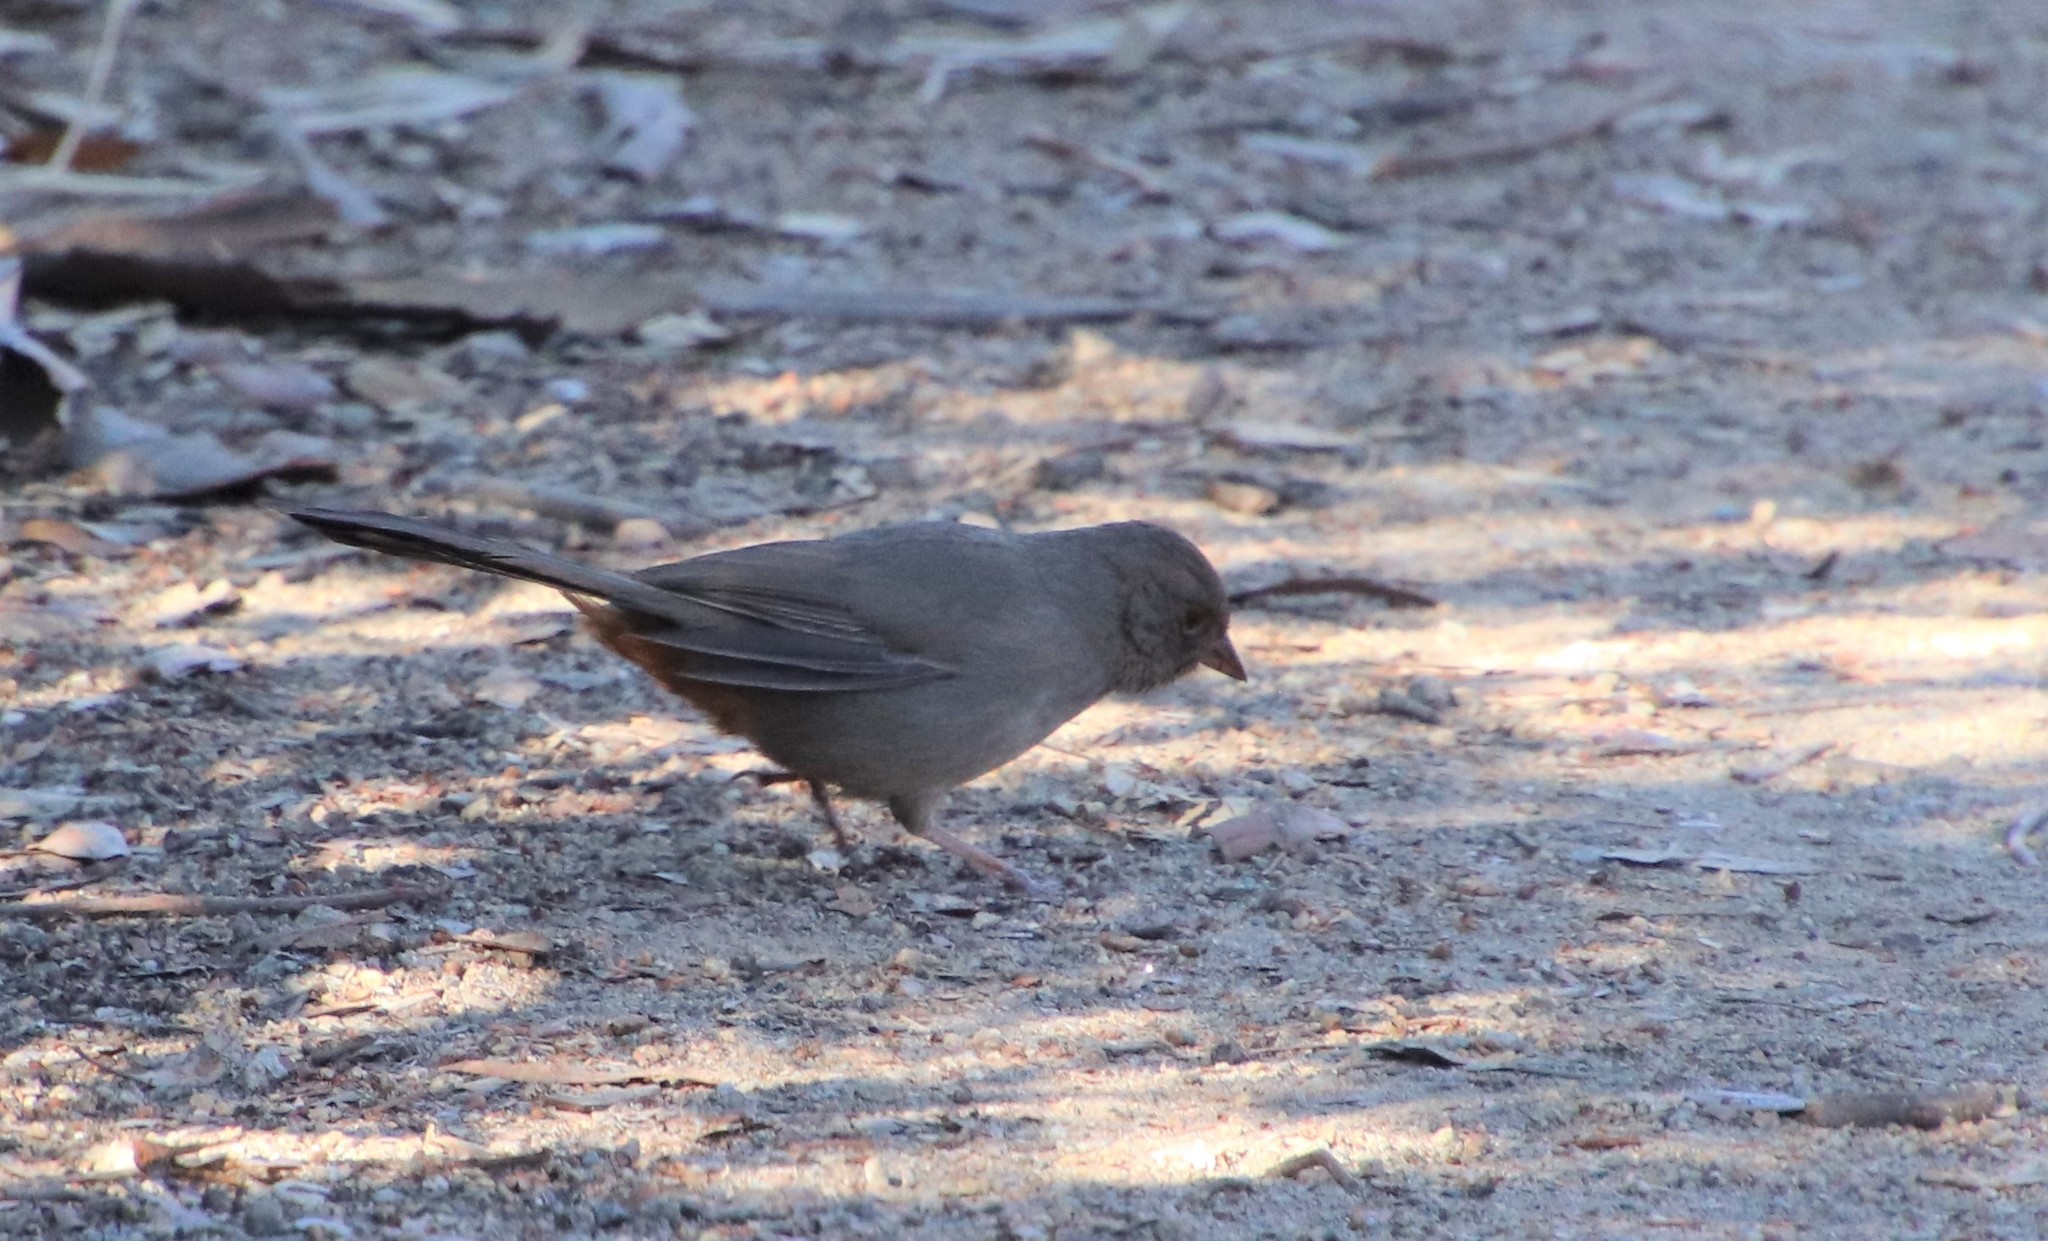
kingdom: Animalia
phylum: Chordata
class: Aves
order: Passeriformes
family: Passerellidae
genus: Melozone
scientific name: Melozone crissalis
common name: California towhee
